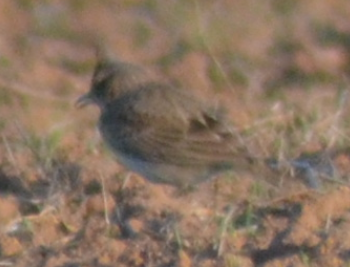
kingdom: Animalia
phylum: Chordata
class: Aves
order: Passeriformes
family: Alaudidae
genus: Galerida
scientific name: Galerida cristata
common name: Crested lark
